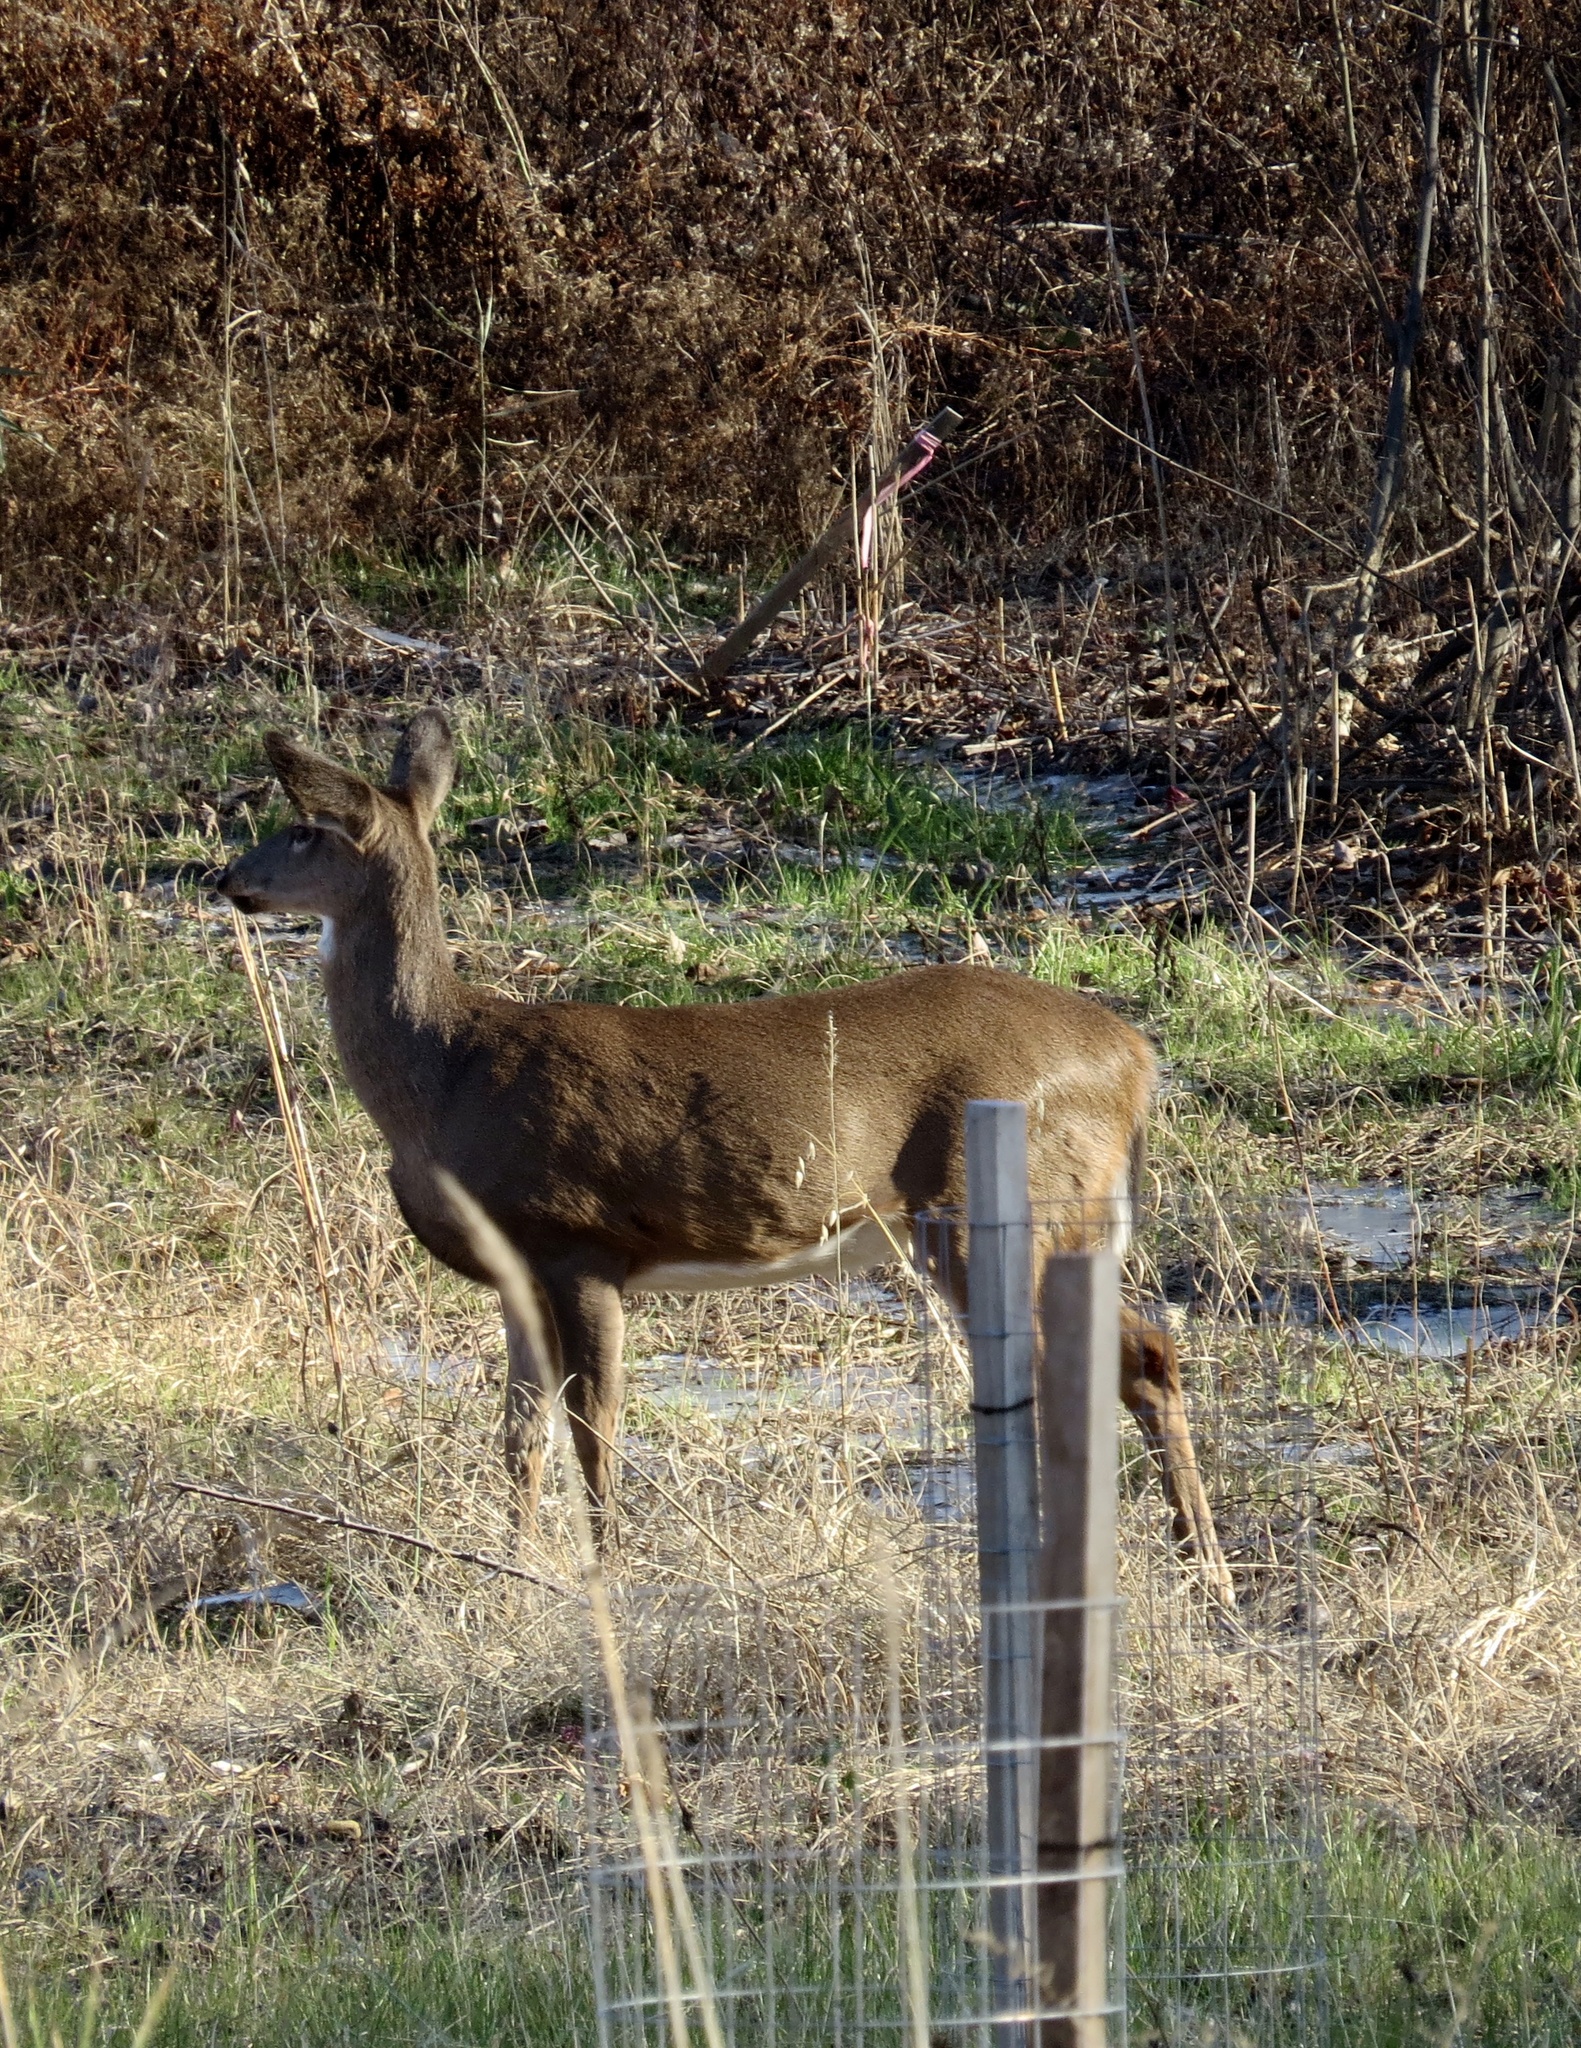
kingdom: Animalia
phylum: Chordata
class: Mammalia
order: Artiodactyla
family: Cervidae
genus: Odocoileus
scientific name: Odocoileus virginianus
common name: White-tailed deer
